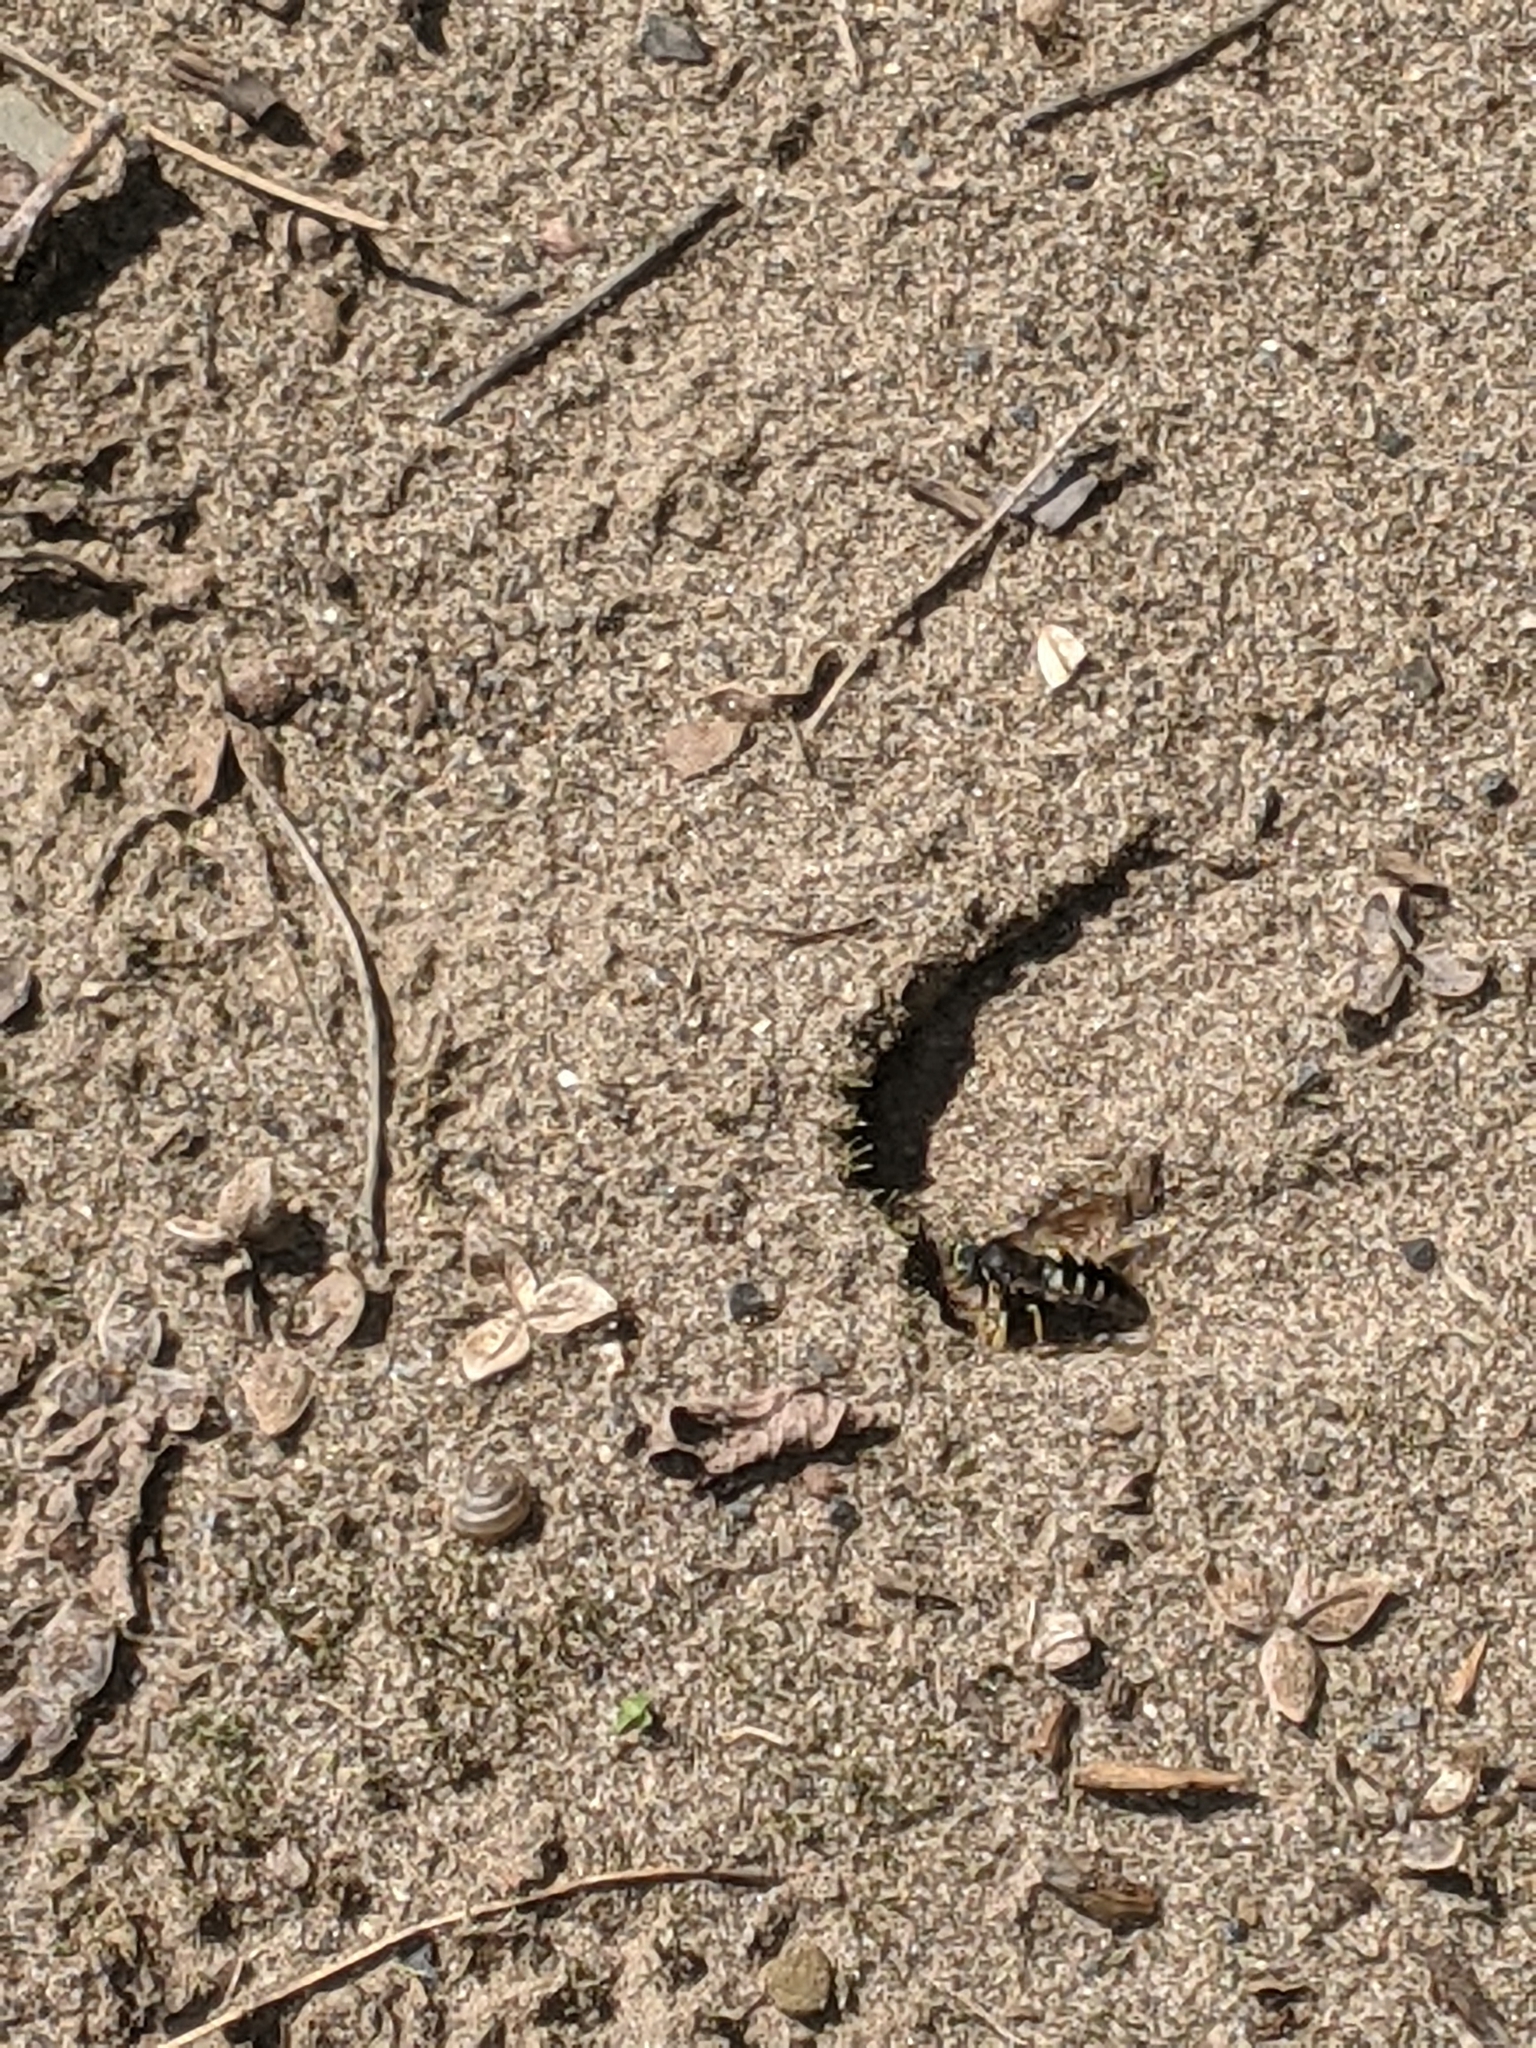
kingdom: Animalia
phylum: Arthropoda
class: Insecta
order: Hymenoptera
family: Crabronidae
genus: Bicyrtes
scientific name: Bicyrtes quadrifasciatus
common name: Four-banded stink bug hunter wasp
